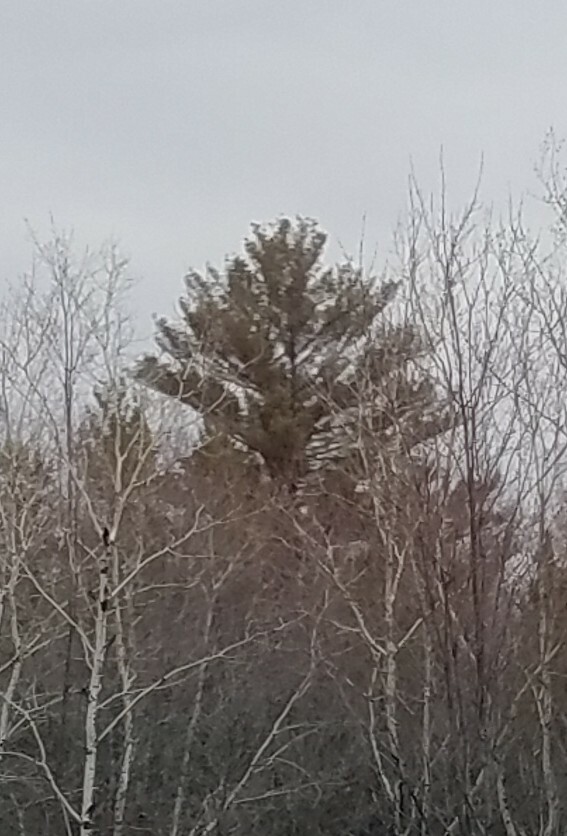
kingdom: Plantae
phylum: Tracheophyta
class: Pinopsida
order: Pinales
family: Pinaceae
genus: Pinus
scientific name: Pinus strobus
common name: Weymouth pine
